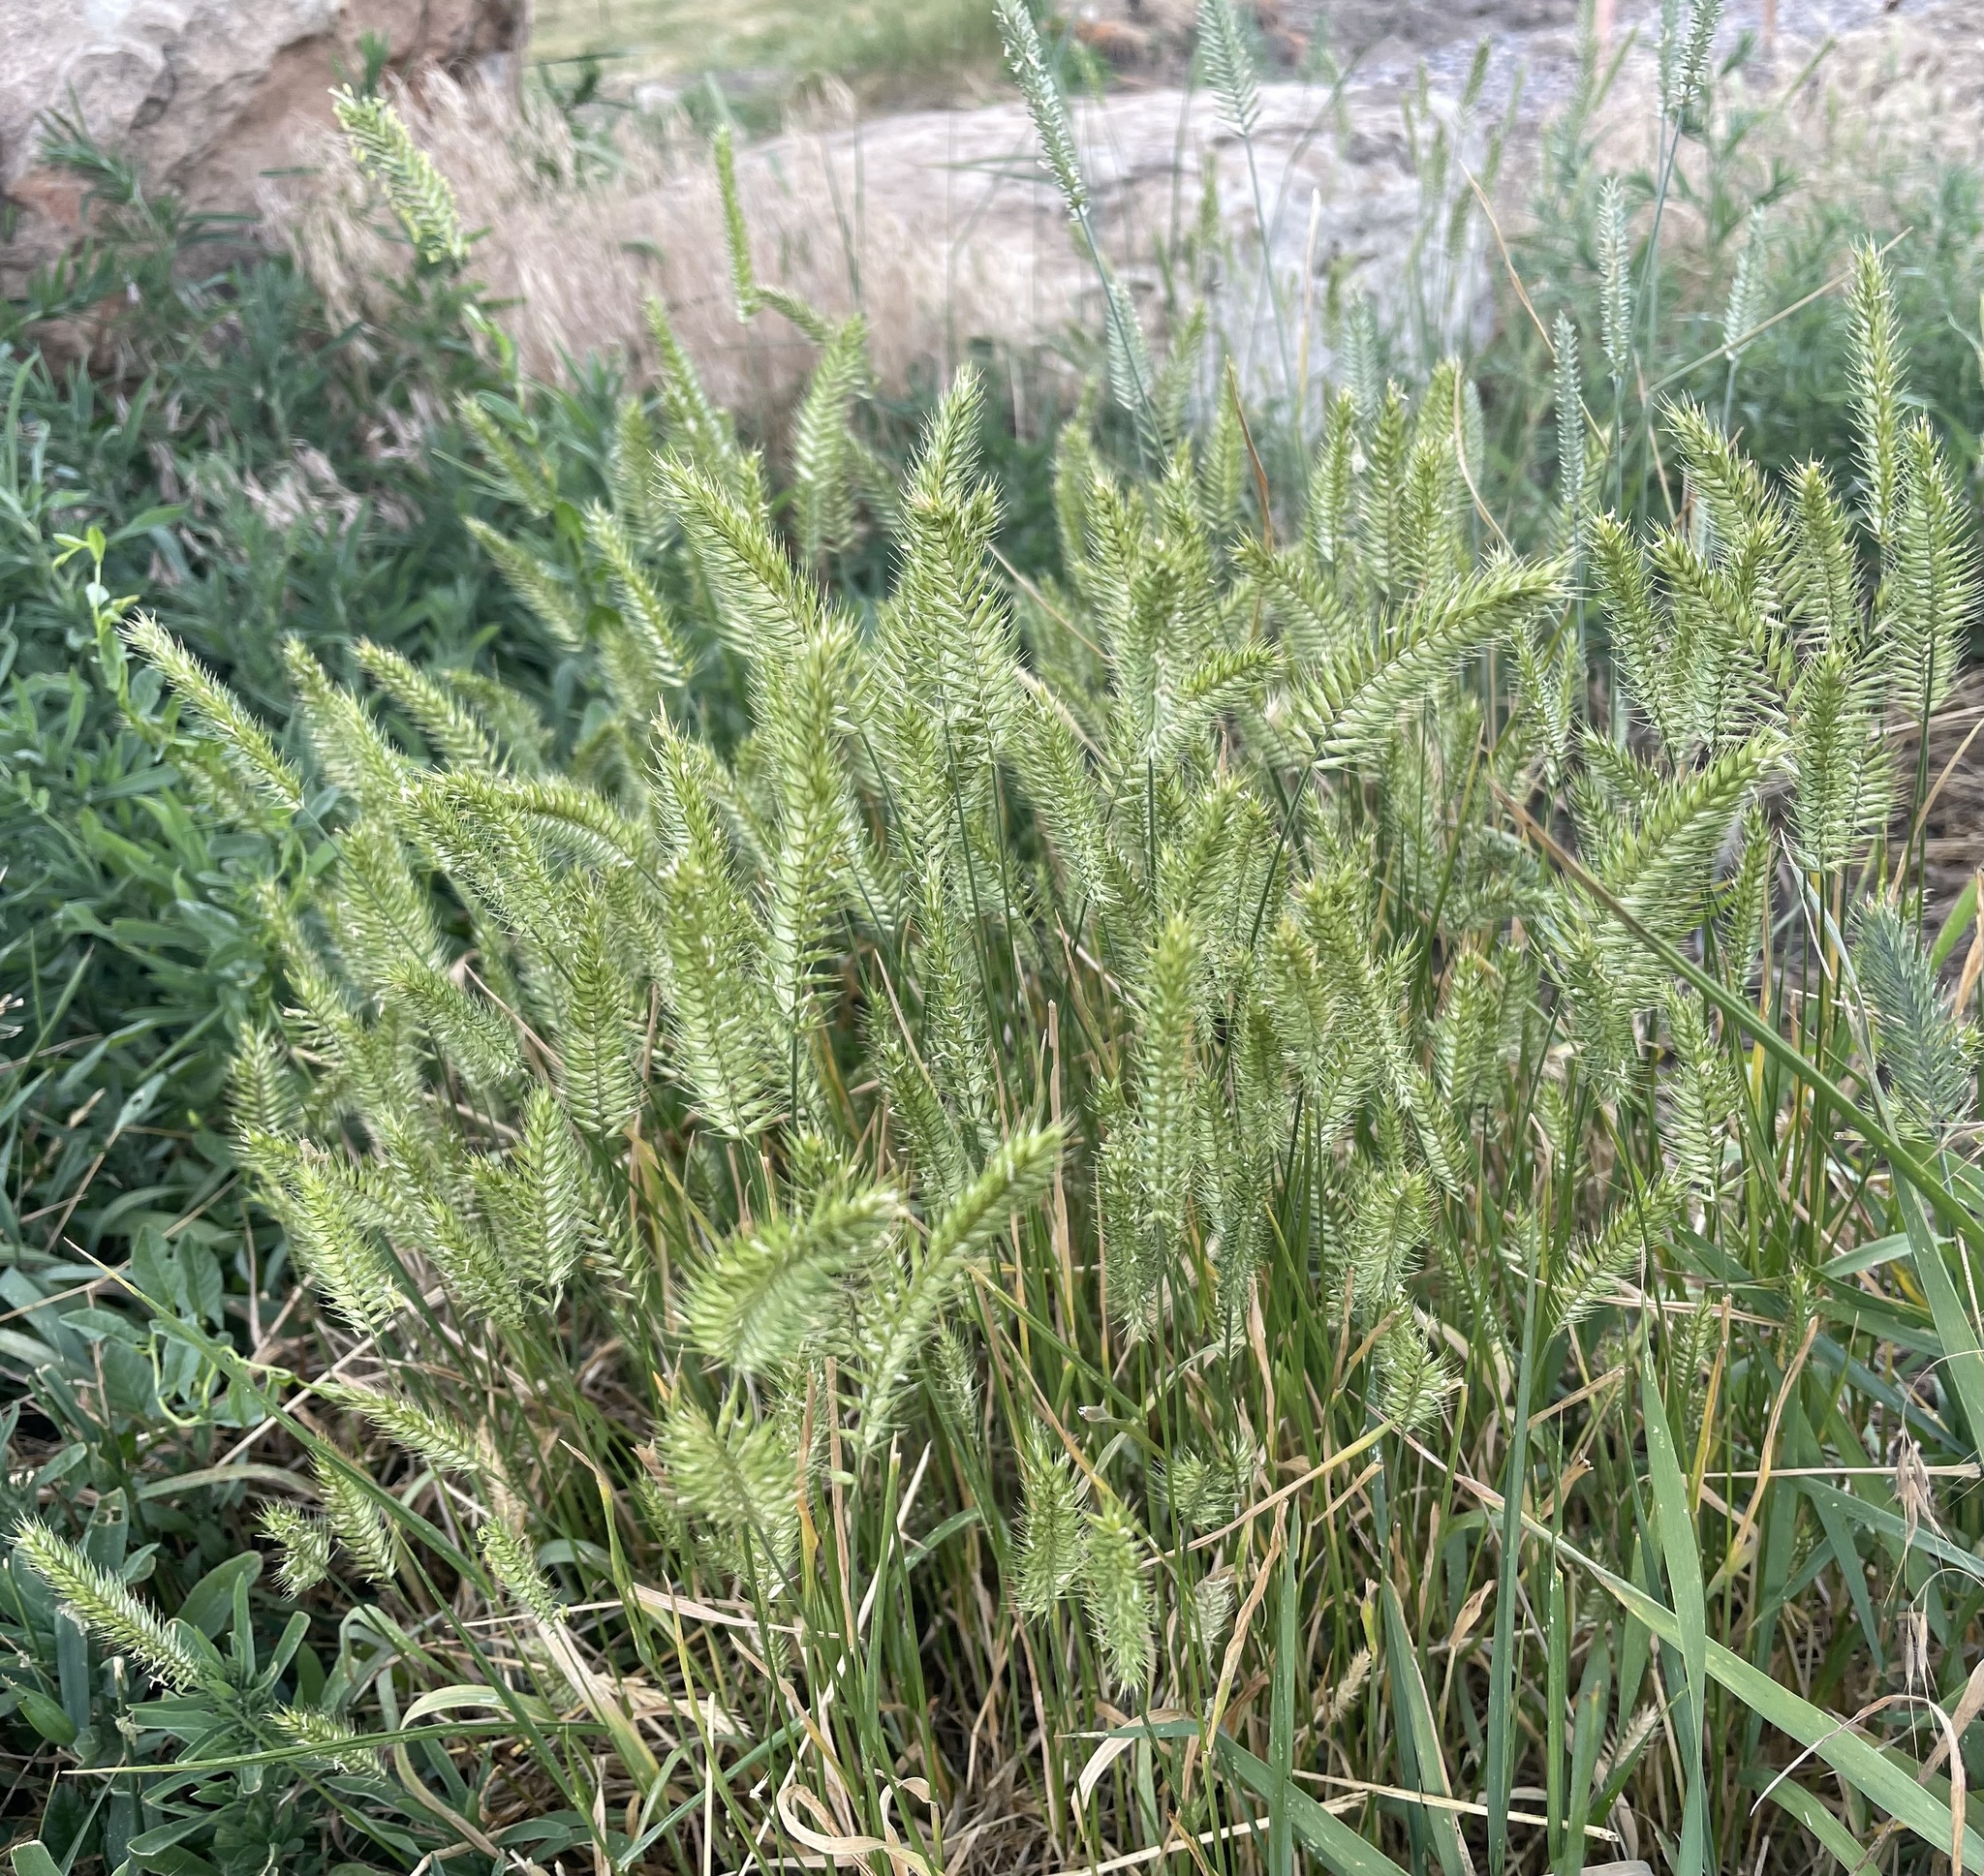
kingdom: Plantae
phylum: Tracheophyta
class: Liliopsida
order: Poales
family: Poaceae
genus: Agropyron
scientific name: Agropyron cristatum
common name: Crested wheatgrass
